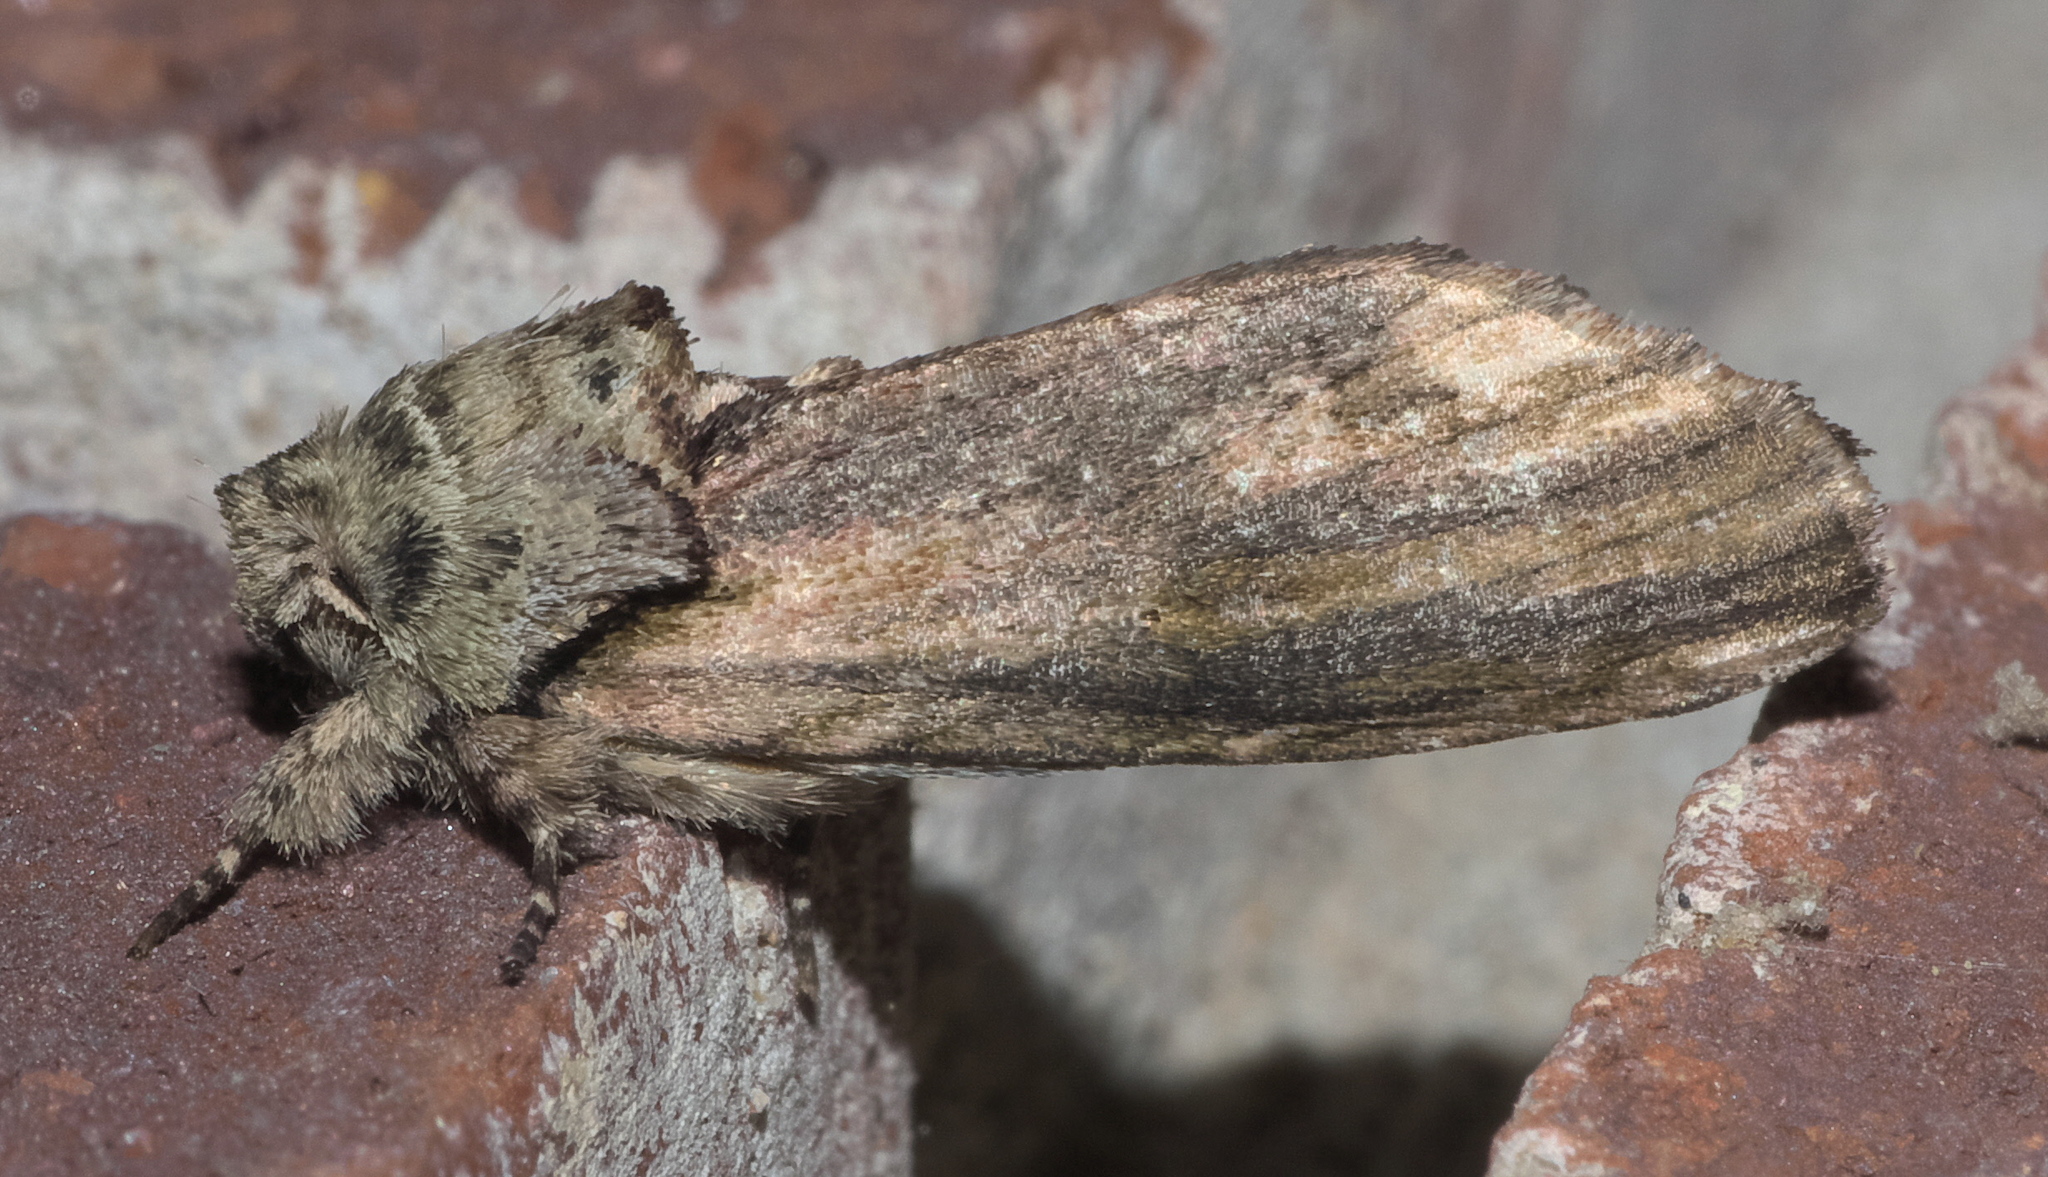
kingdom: Animalia
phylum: Arthropoda
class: Insecta
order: Lepidoptera
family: Notodontidae
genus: Schizura
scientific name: Schizura
